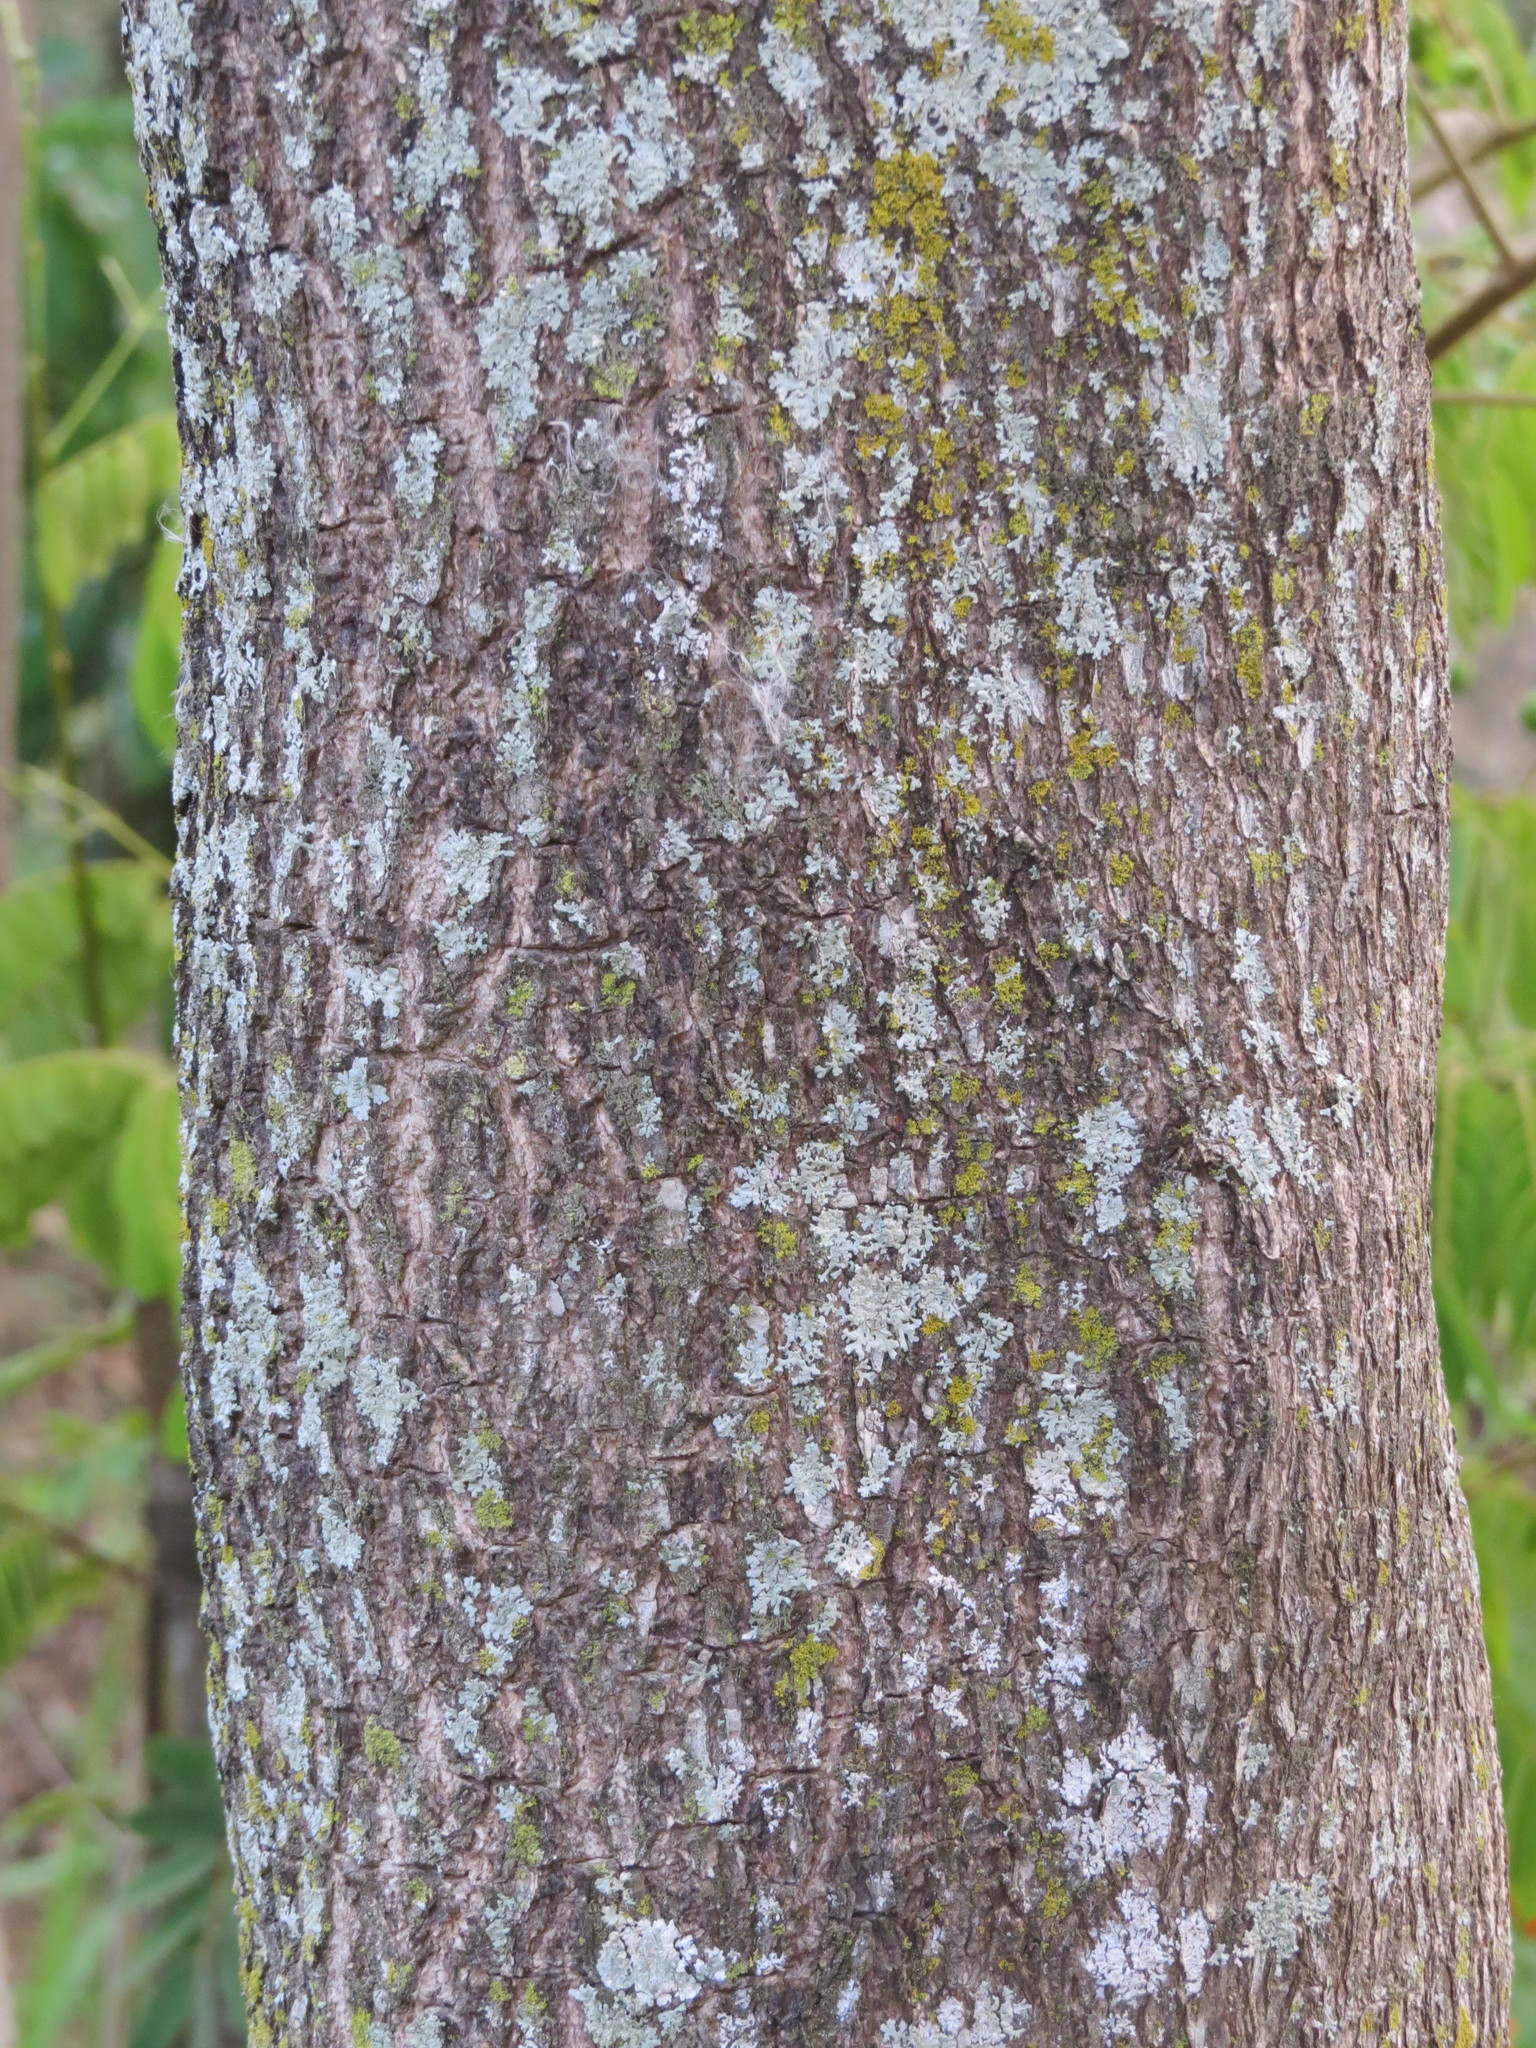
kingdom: Plantae
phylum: Tracheophyta
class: Magnoliopsida
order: Lamiales
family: Bignoniaceae
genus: Tabebuia
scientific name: Tabebuia rosea
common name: Pink poui
